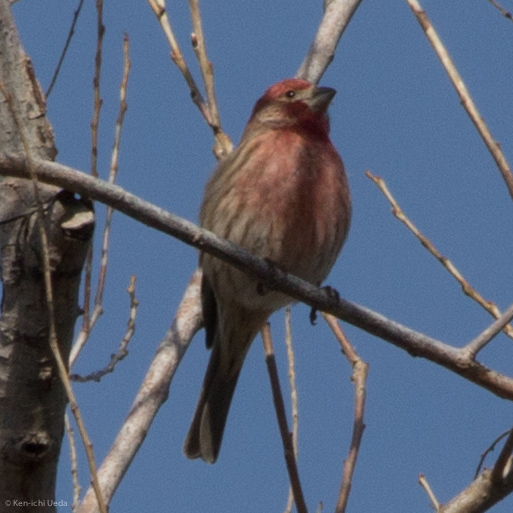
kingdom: Animalia
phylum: Chordata
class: Aves
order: Passeriformes
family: Fringillidae
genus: Haemorhous
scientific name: Haemorhous mexicanus
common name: House finch
